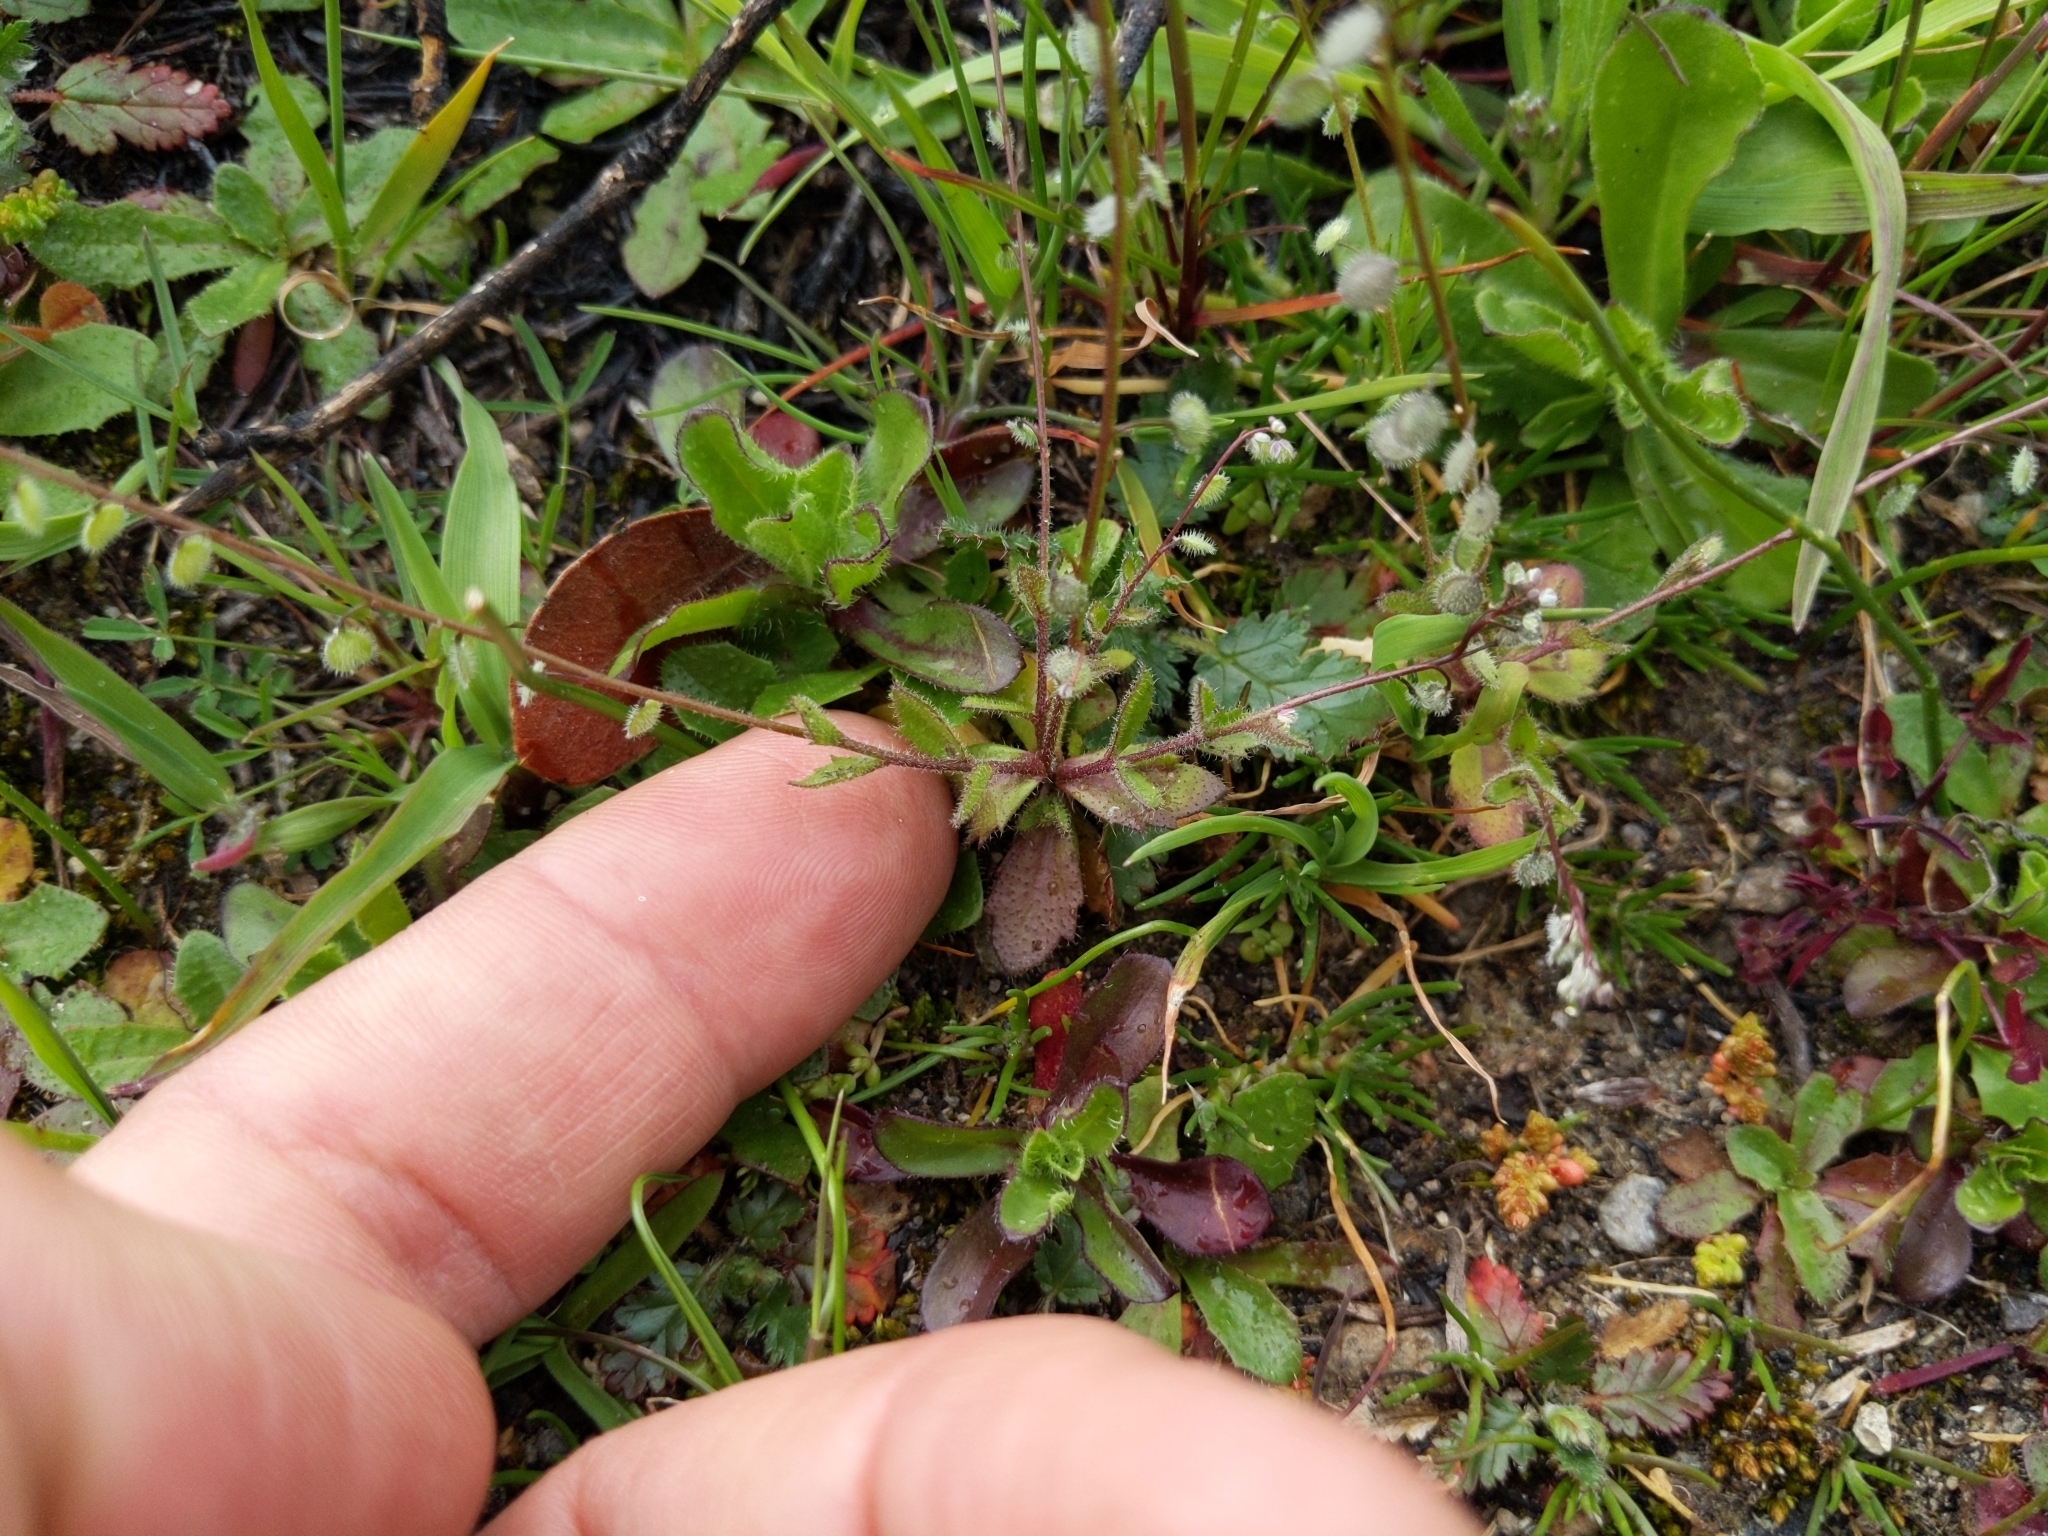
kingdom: Plantae
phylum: Tracheophyta
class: Magnoliopsida
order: Brassicales
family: Brassicaceae
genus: Athysanus
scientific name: Athysanus pusillus
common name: Common sandweed
